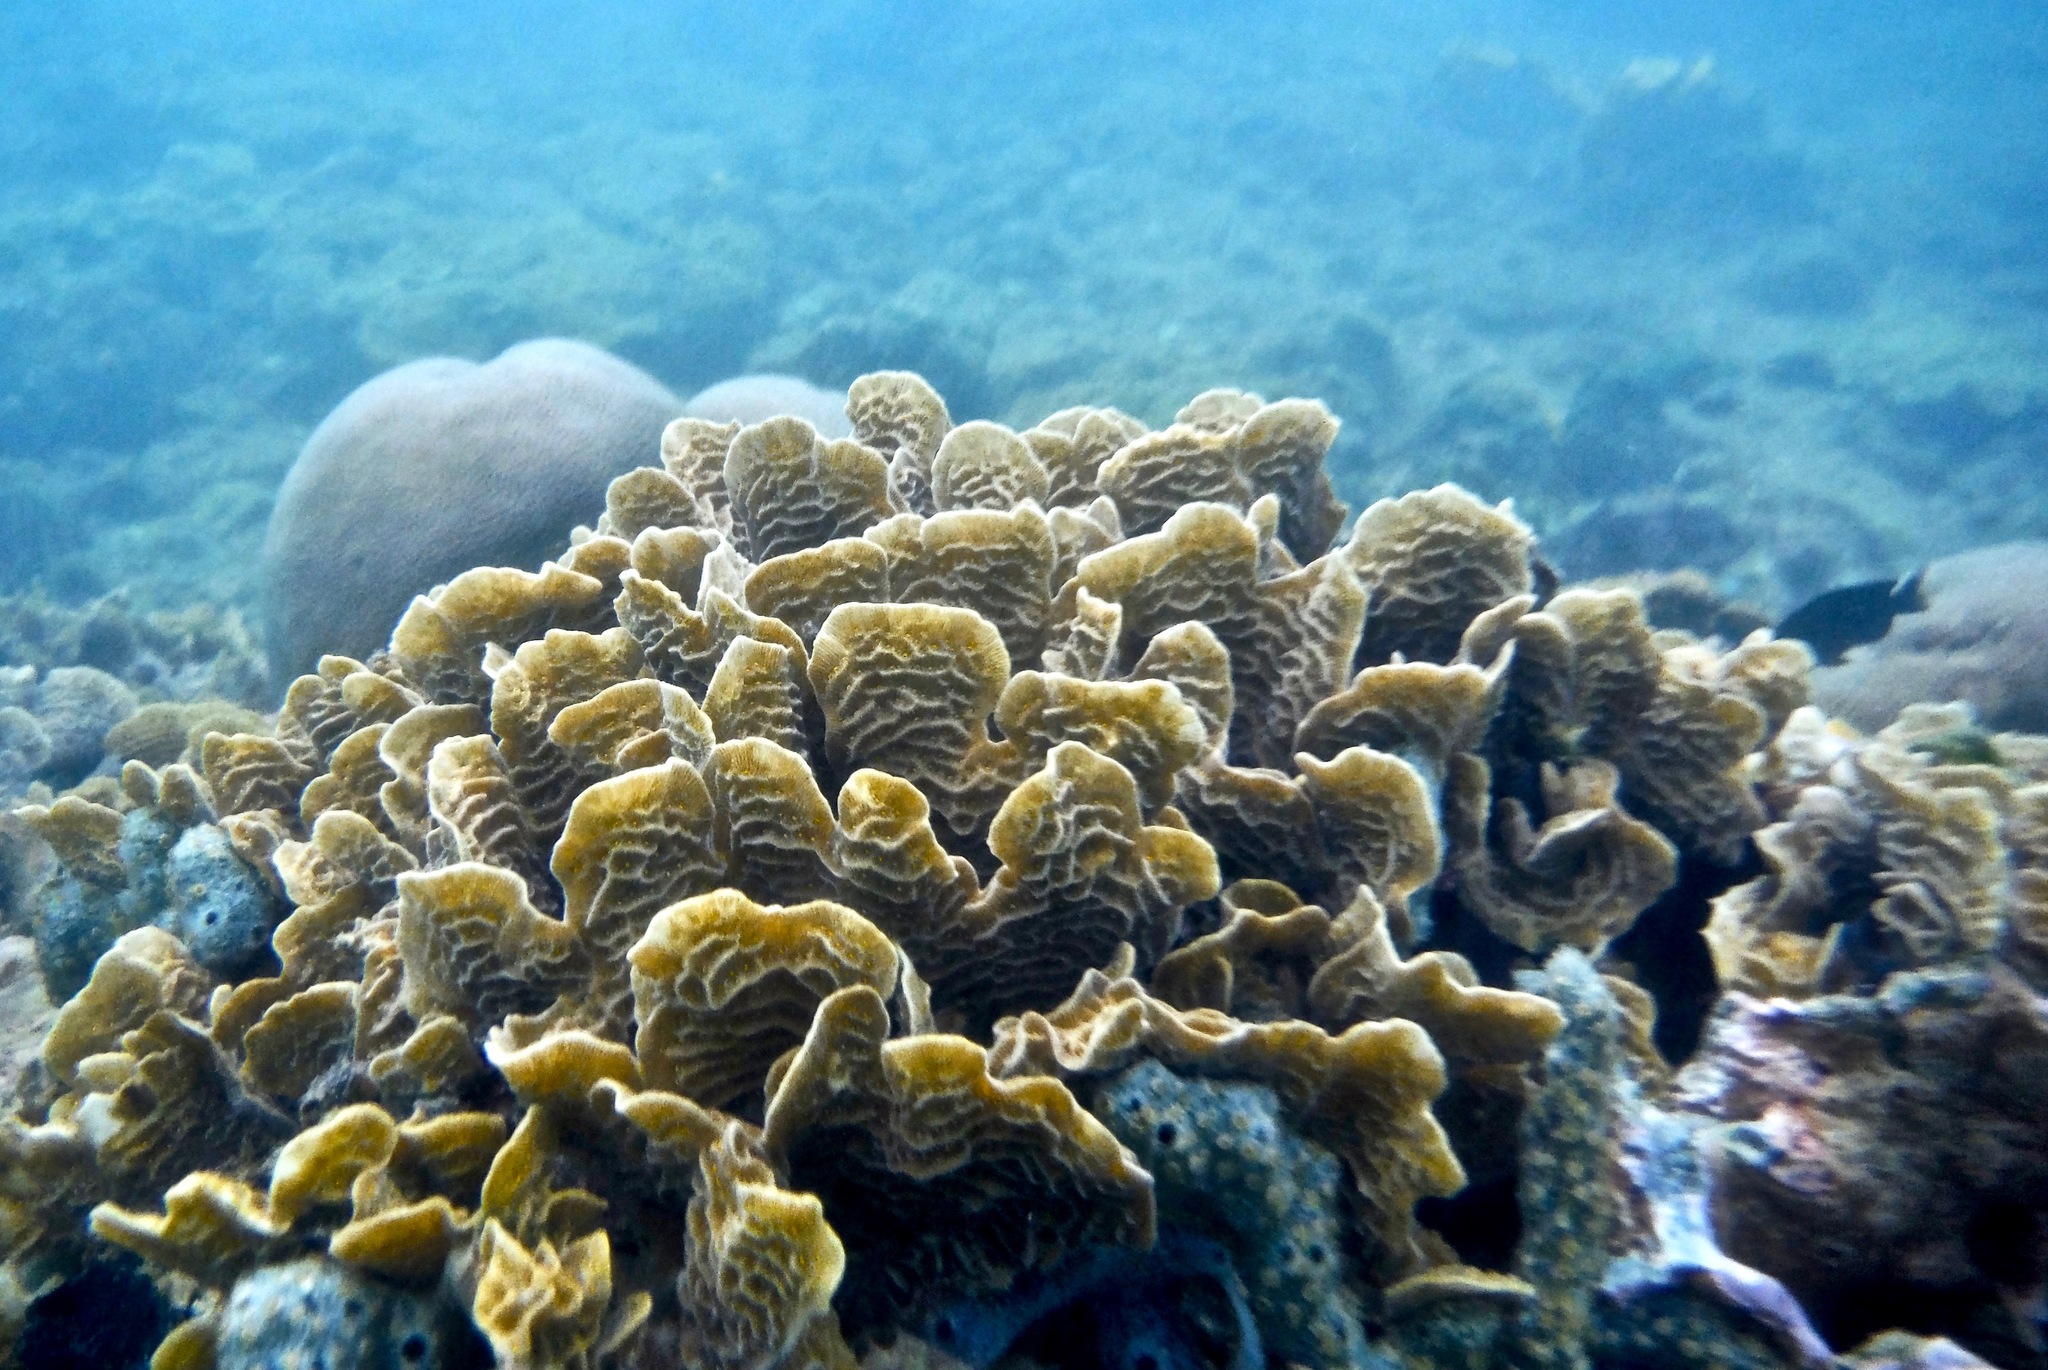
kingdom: Animalia
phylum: Cnidaria
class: Anthozoa
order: Scleractinia
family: Agariciidae
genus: Agaricia
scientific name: Agaricia tenuifolia
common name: Thin leaf lettuce coral
